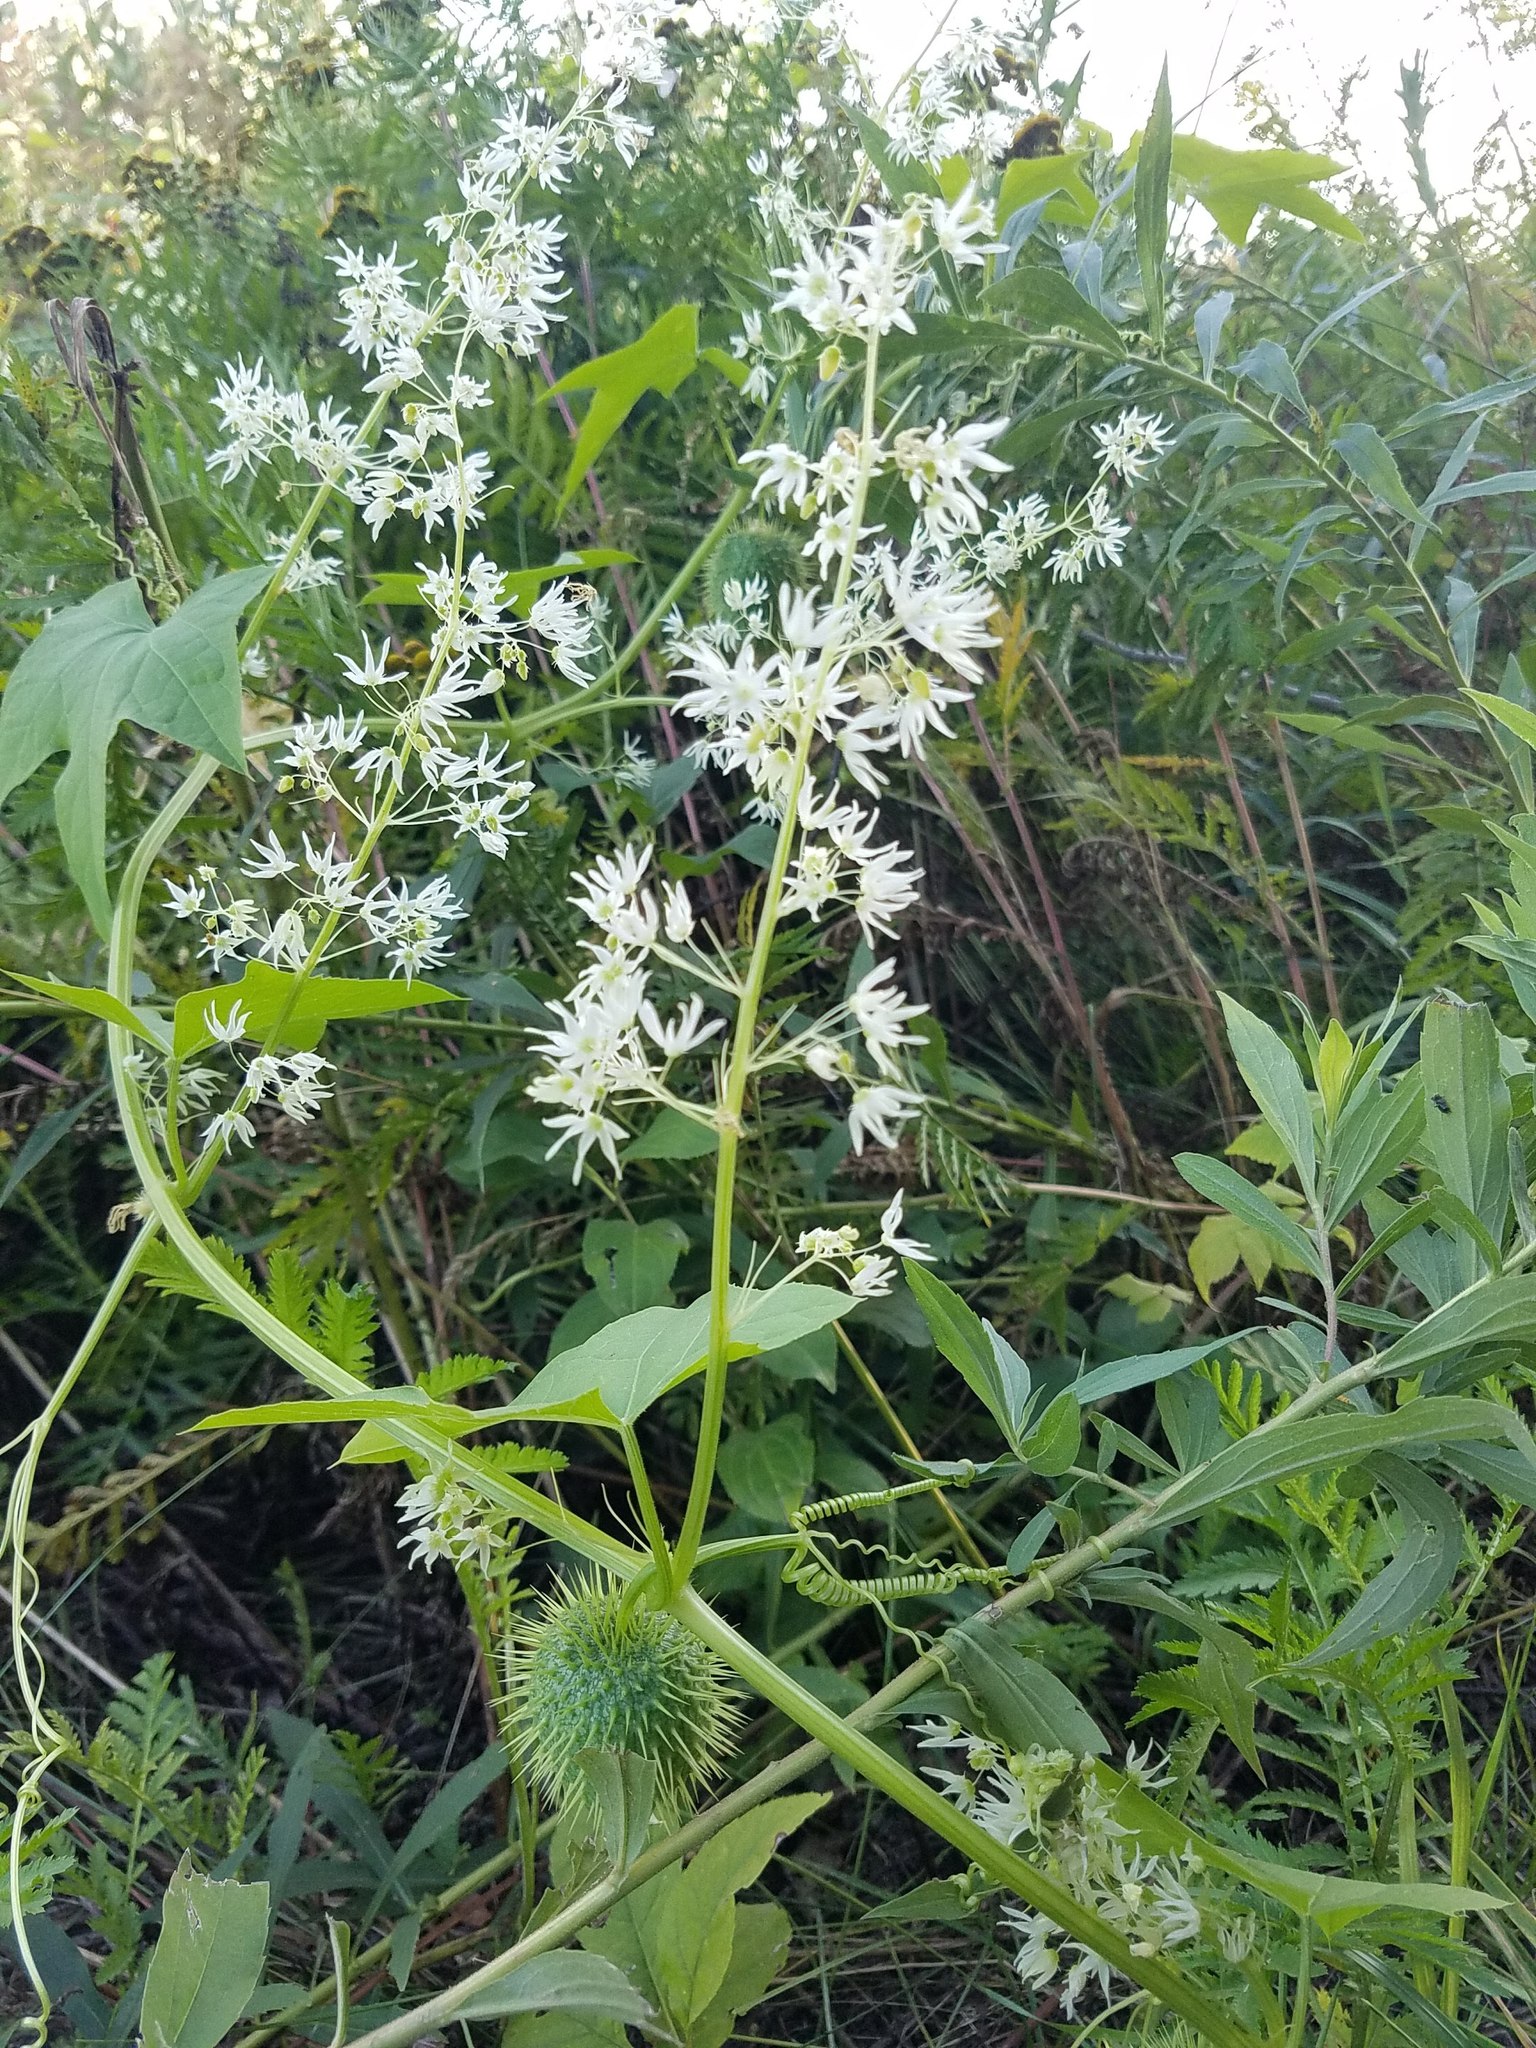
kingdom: Plantae
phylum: Tracheophyta
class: Magnoliopsida
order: Cucurbitales
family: Cucurbitaceae
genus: Echinocystis
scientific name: Echinocystis lobata
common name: Wild cucumber
